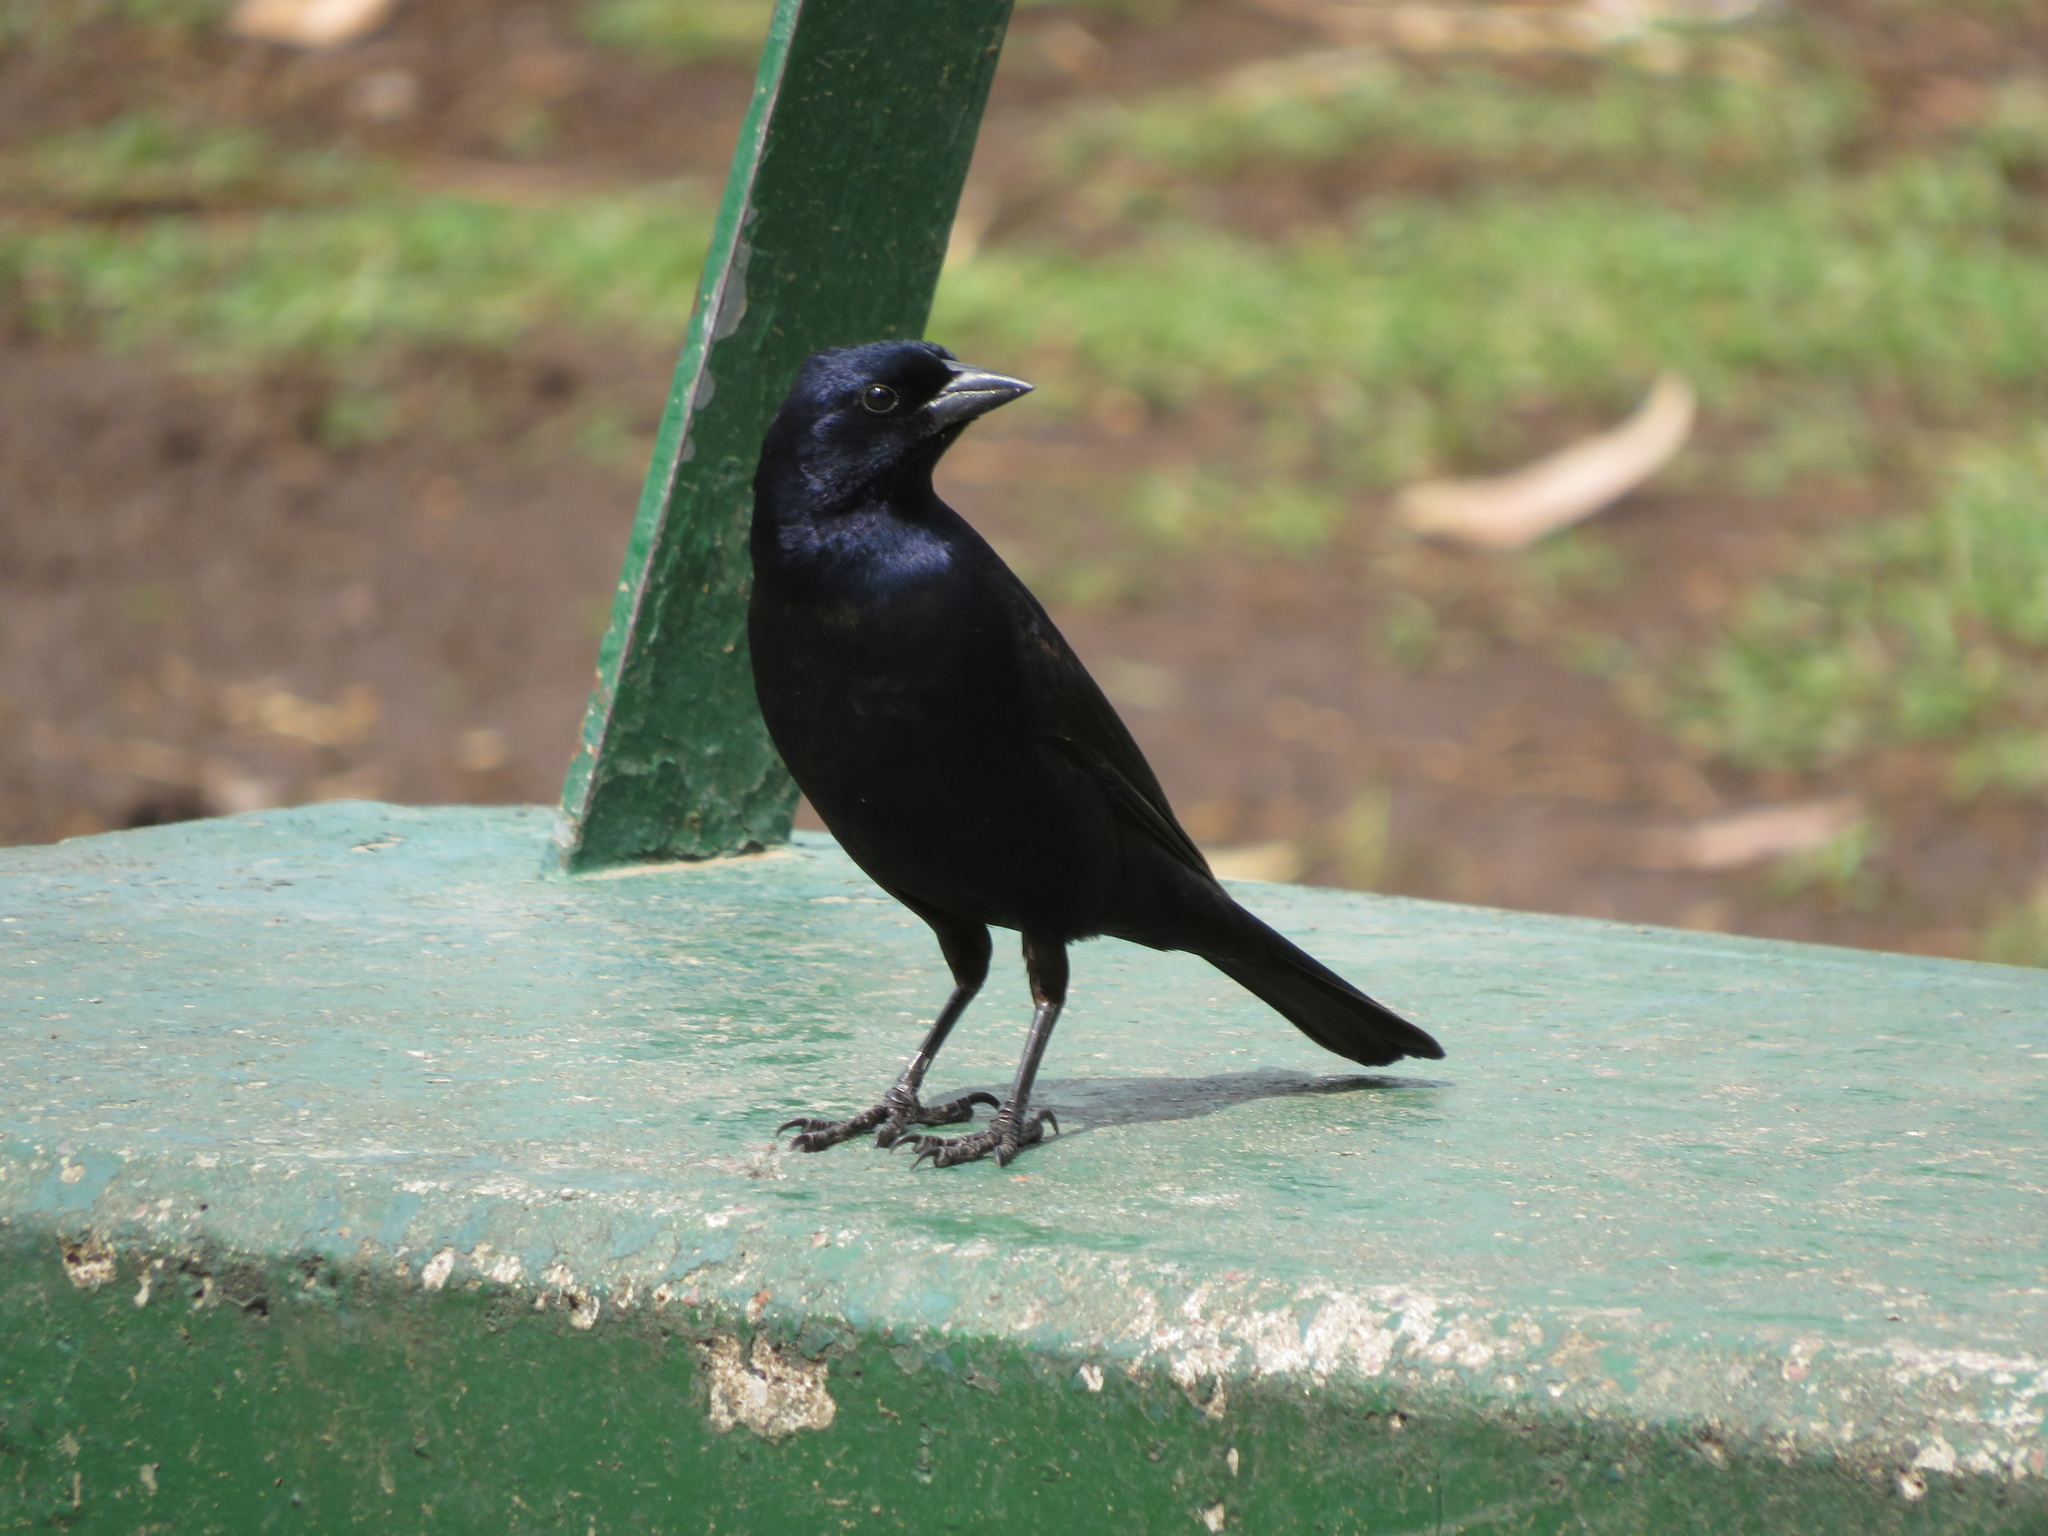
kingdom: Animalia
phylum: Chordata
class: Aves
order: Passeriformes
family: Icteridae
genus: Molothrus
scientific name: Molothrus bonariensis
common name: Shiny cowbird
